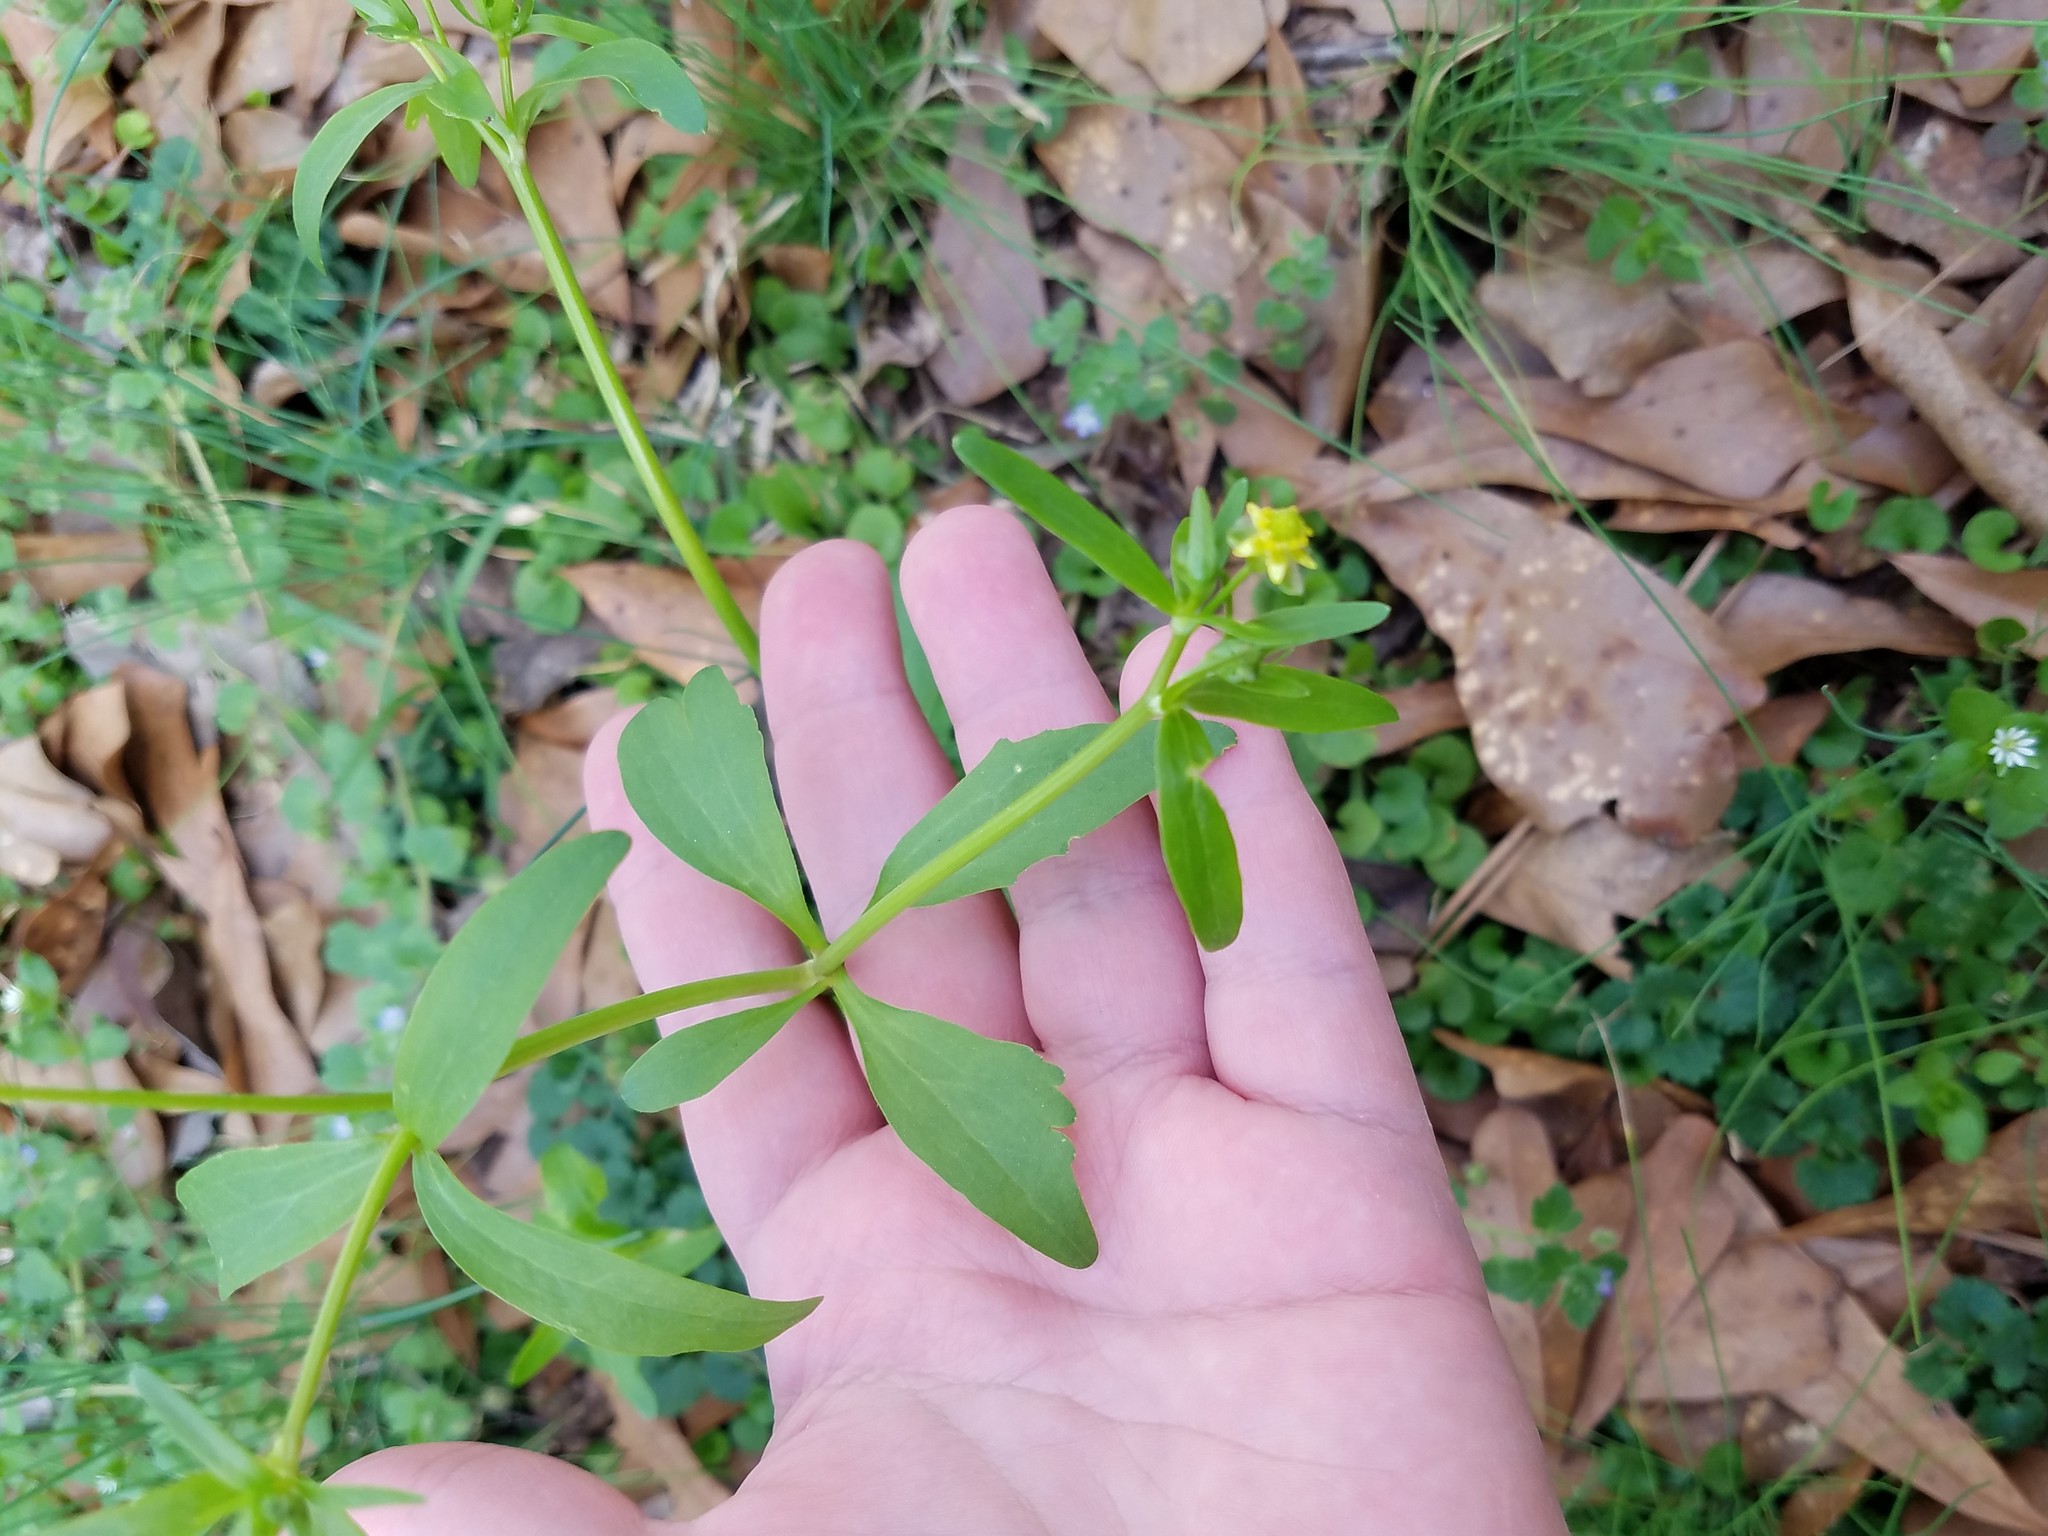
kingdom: Plantae
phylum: Tracheophyta
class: Magnoliopsida
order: Ranunculales
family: Ranunculaceae
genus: Ranunculus
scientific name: Ranunculus abortivus
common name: Early wood buttercup
